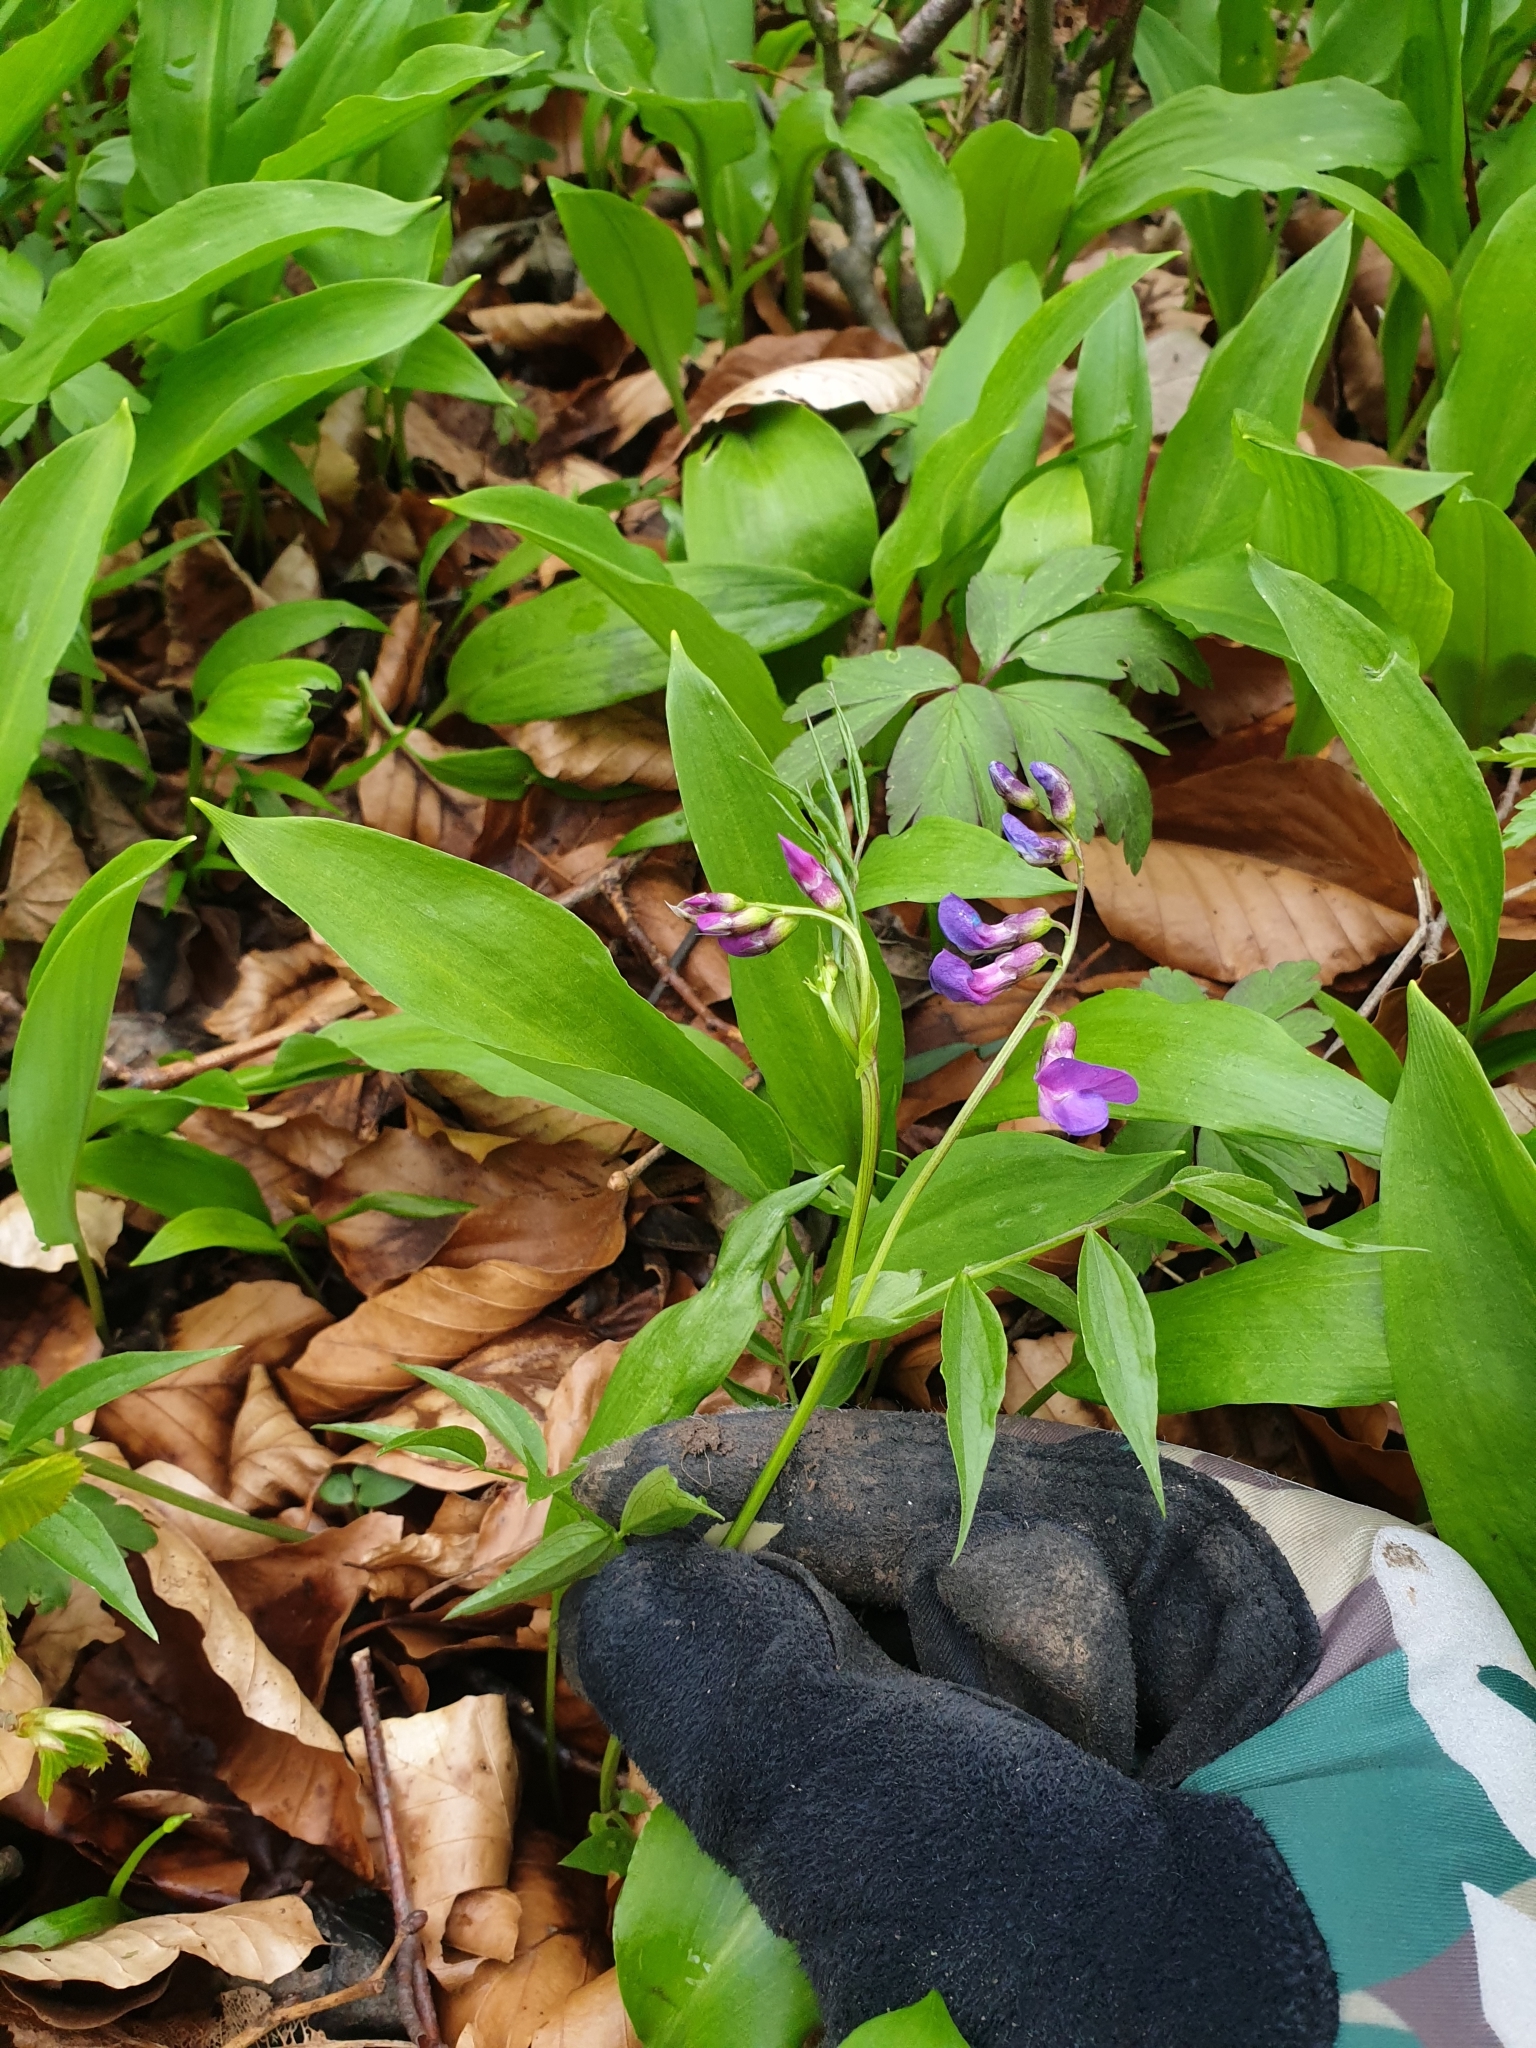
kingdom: Plantae
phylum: Tracheophyta
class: Magnoliopsida
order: Fabales
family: Fabaceae
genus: Lathyrus
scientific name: Lathyrus vernus
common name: Spring pea
